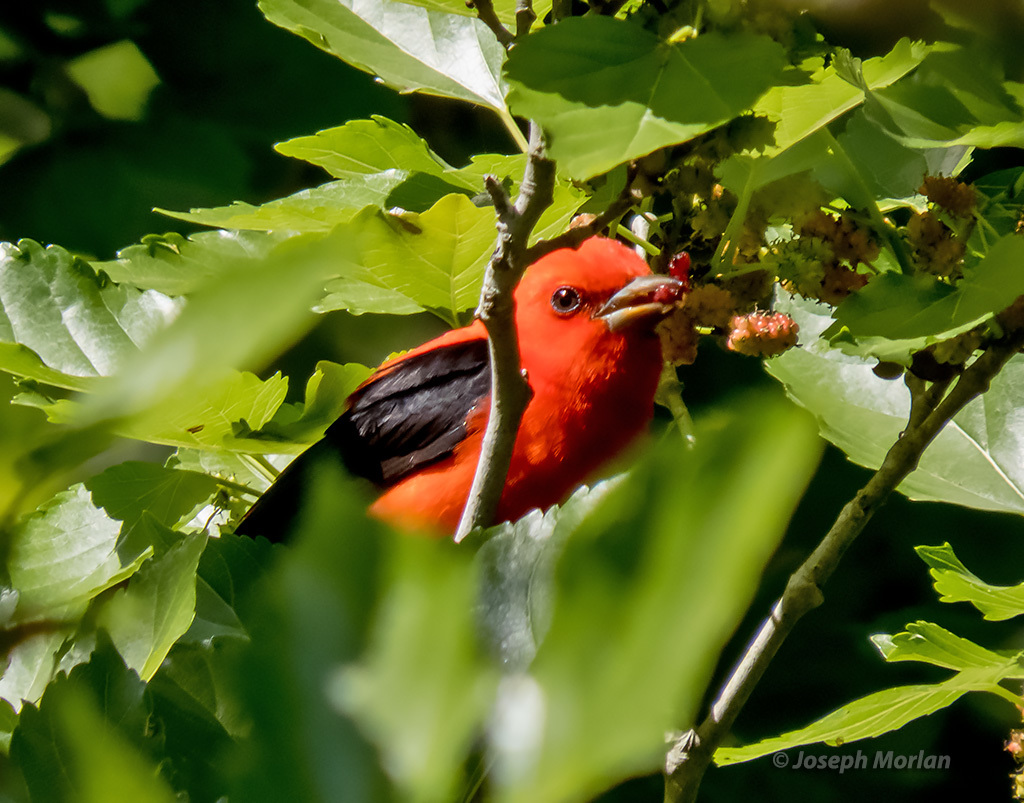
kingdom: Animalia
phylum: Chordata
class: Aves
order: Passeriformes
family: Cardinalidae
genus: Piranga
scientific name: Piranga olivacea
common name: Scarlet tanager
